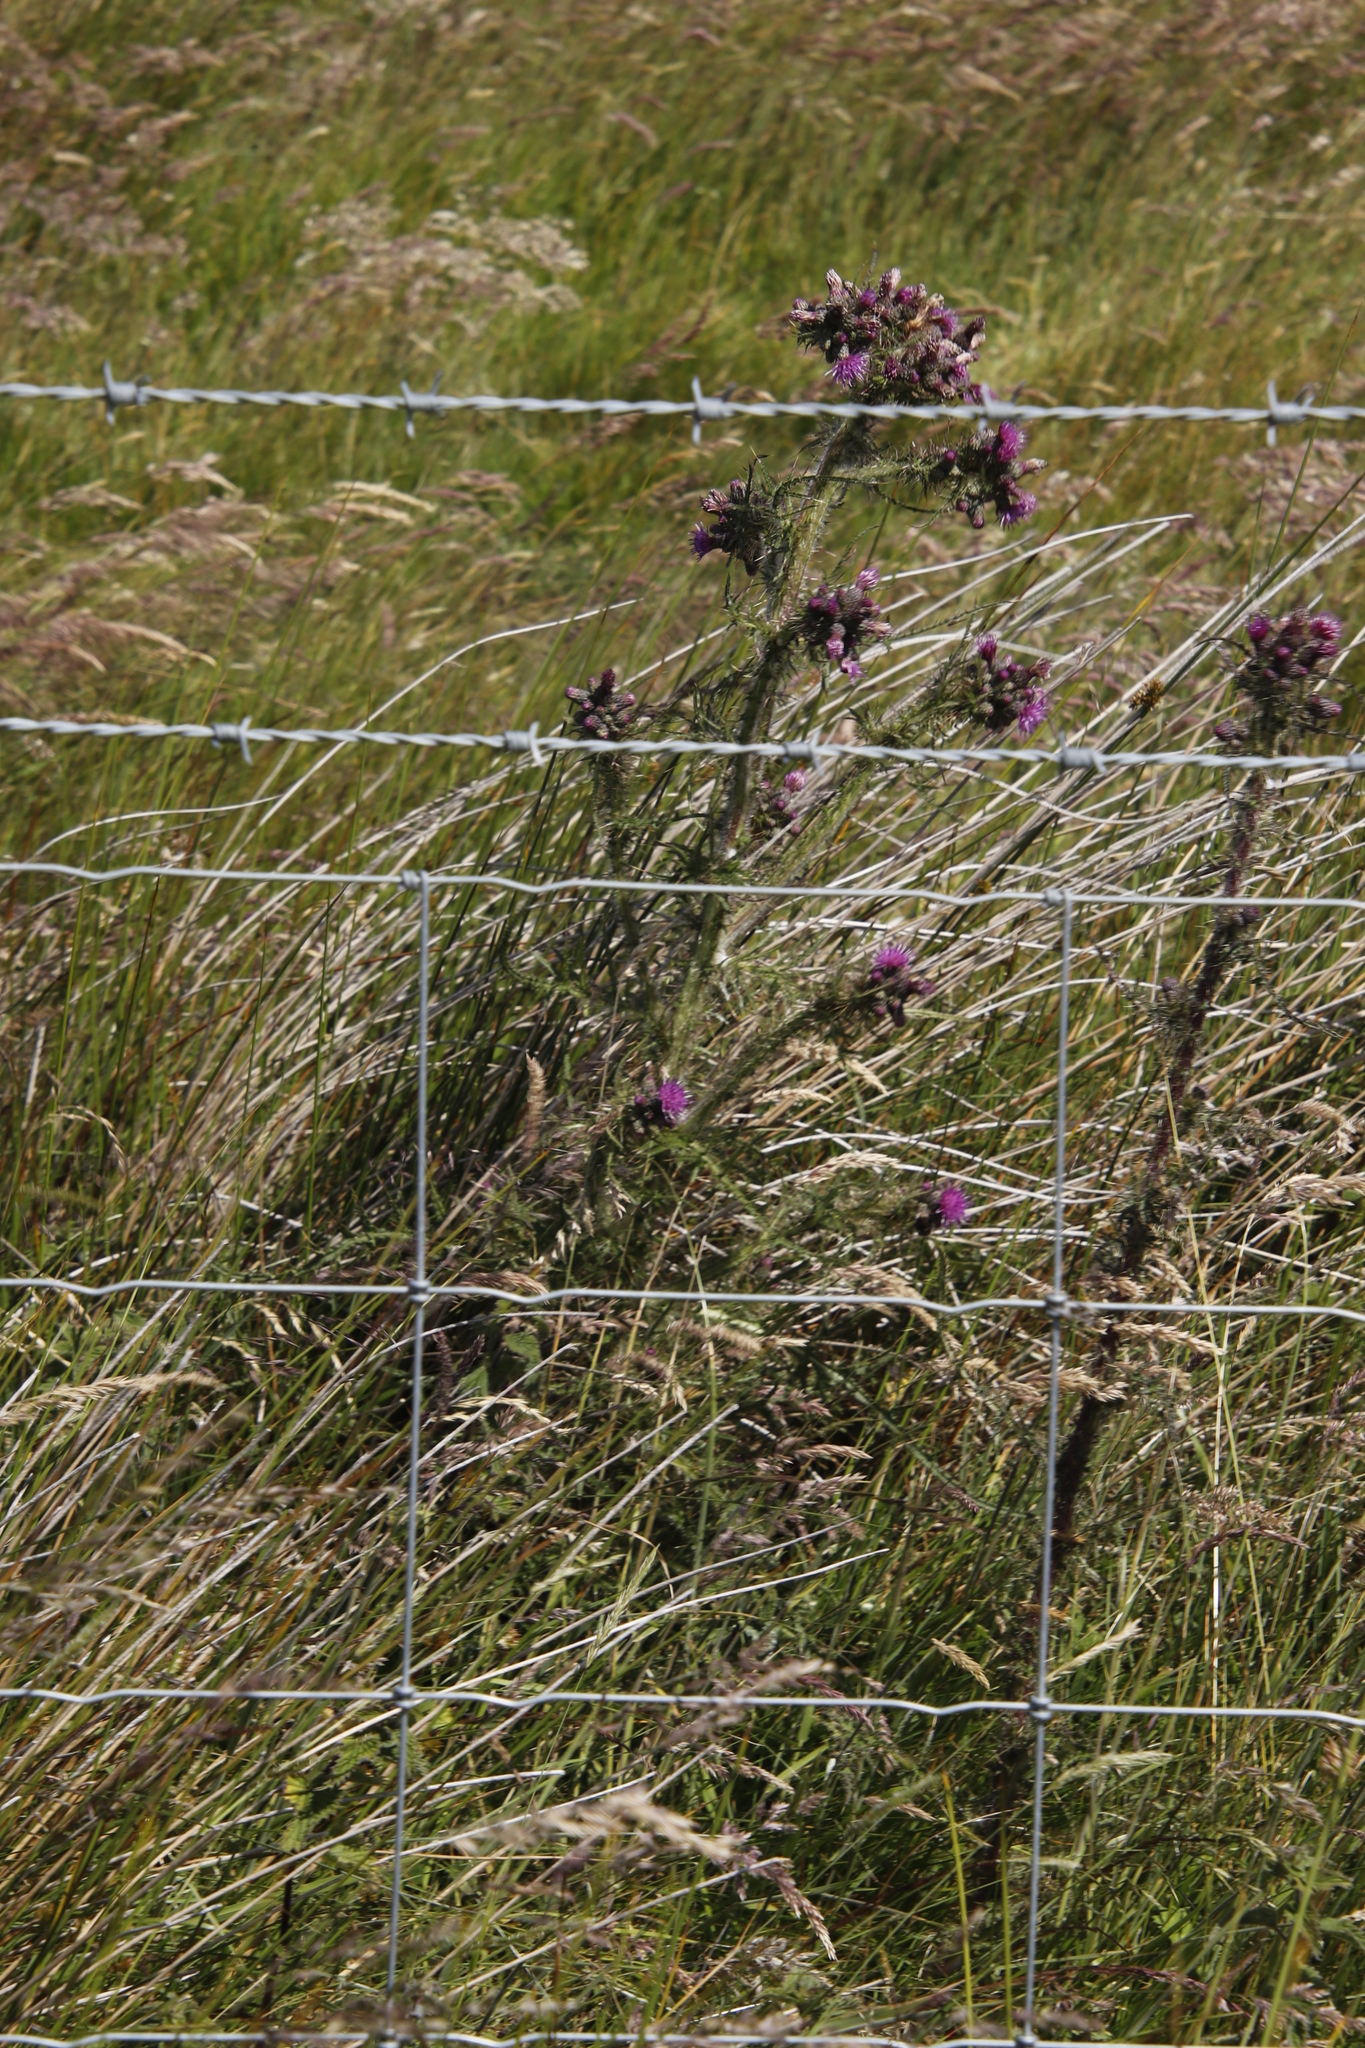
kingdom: Plantae
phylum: Tracheophyta
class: Magnoliopsida
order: Asterales
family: Asteraceae
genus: Cirsium
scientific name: Cirsium palustre
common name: Marsh thistle
